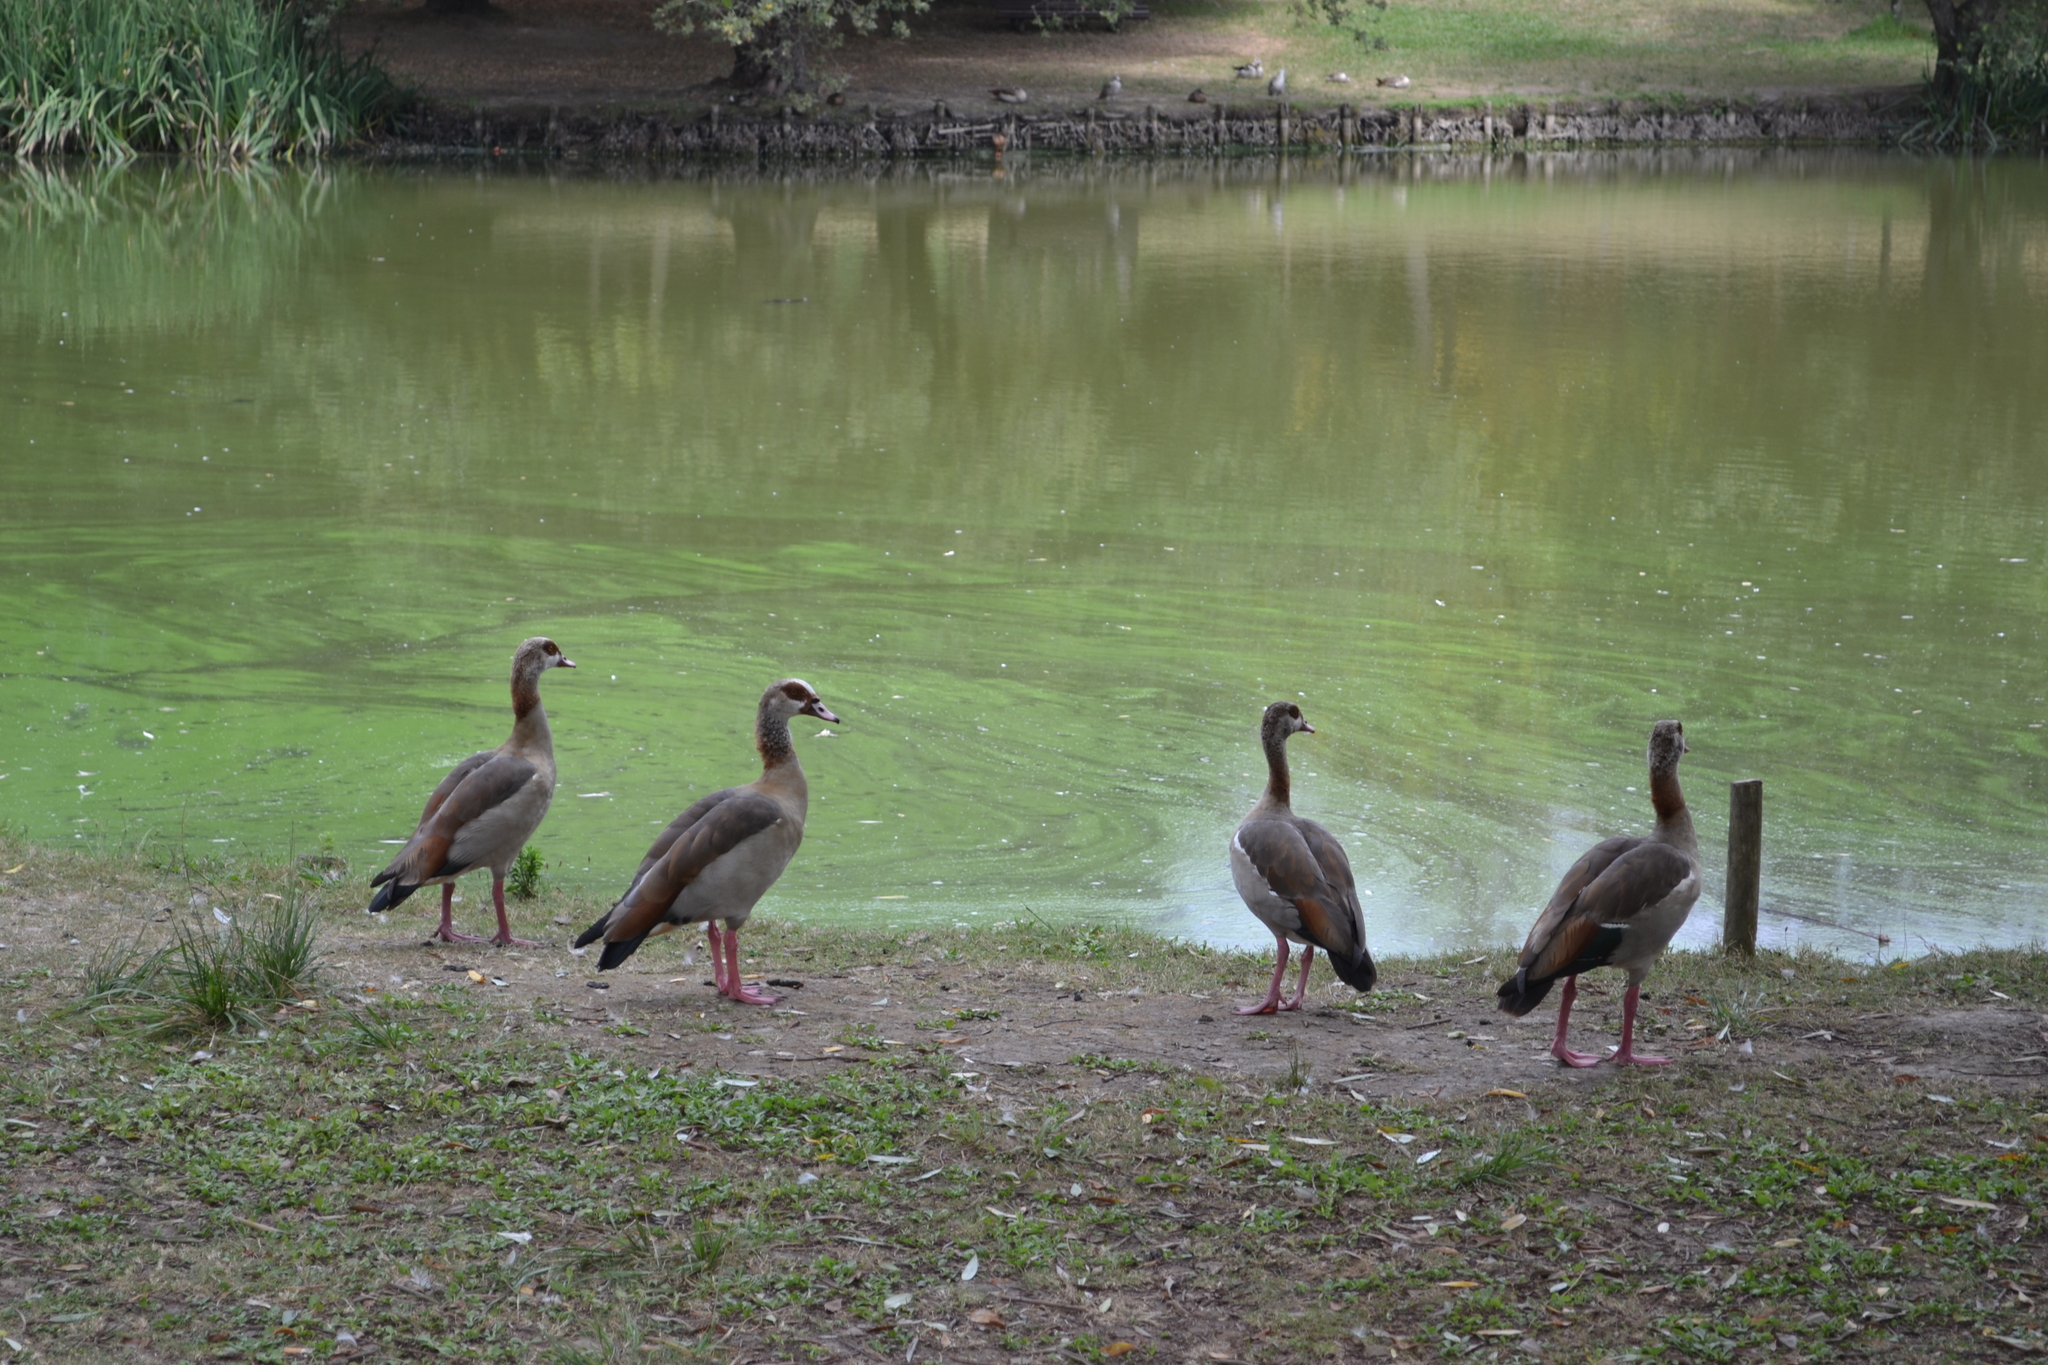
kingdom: Animalia
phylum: Chordata
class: Aves
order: Anseriformes
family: Anatidae
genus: Alopochen
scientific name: Alopochen aegyptiaca
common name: Egyptian goose
